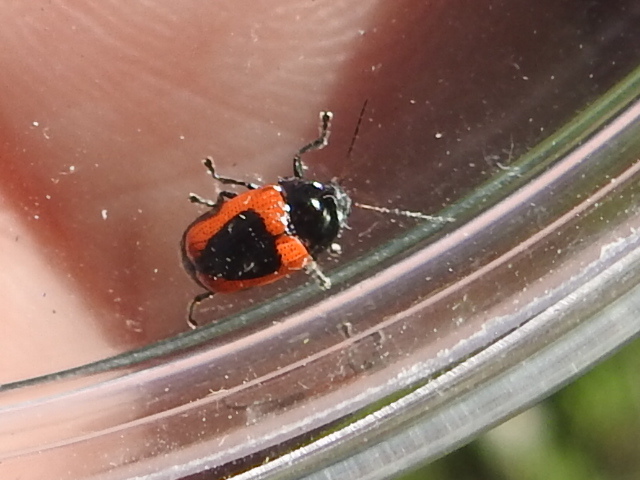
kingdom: Animalia
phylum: Arthropoda
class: Insecta
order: Coleoptera
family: Chrysomelidae
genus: Cryptocephalus
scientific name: Cryptocephalus notatus
